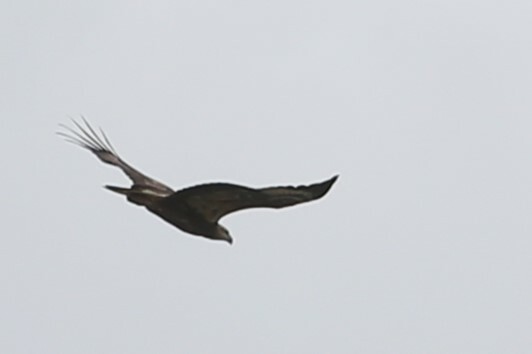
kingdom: Animalia
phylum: Chordata
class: Aves
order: Accipitriformes
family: Accipitridae
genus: Haliaeetus
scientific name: Haliaeetus leucogaster
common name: White-bellied sea eagle
